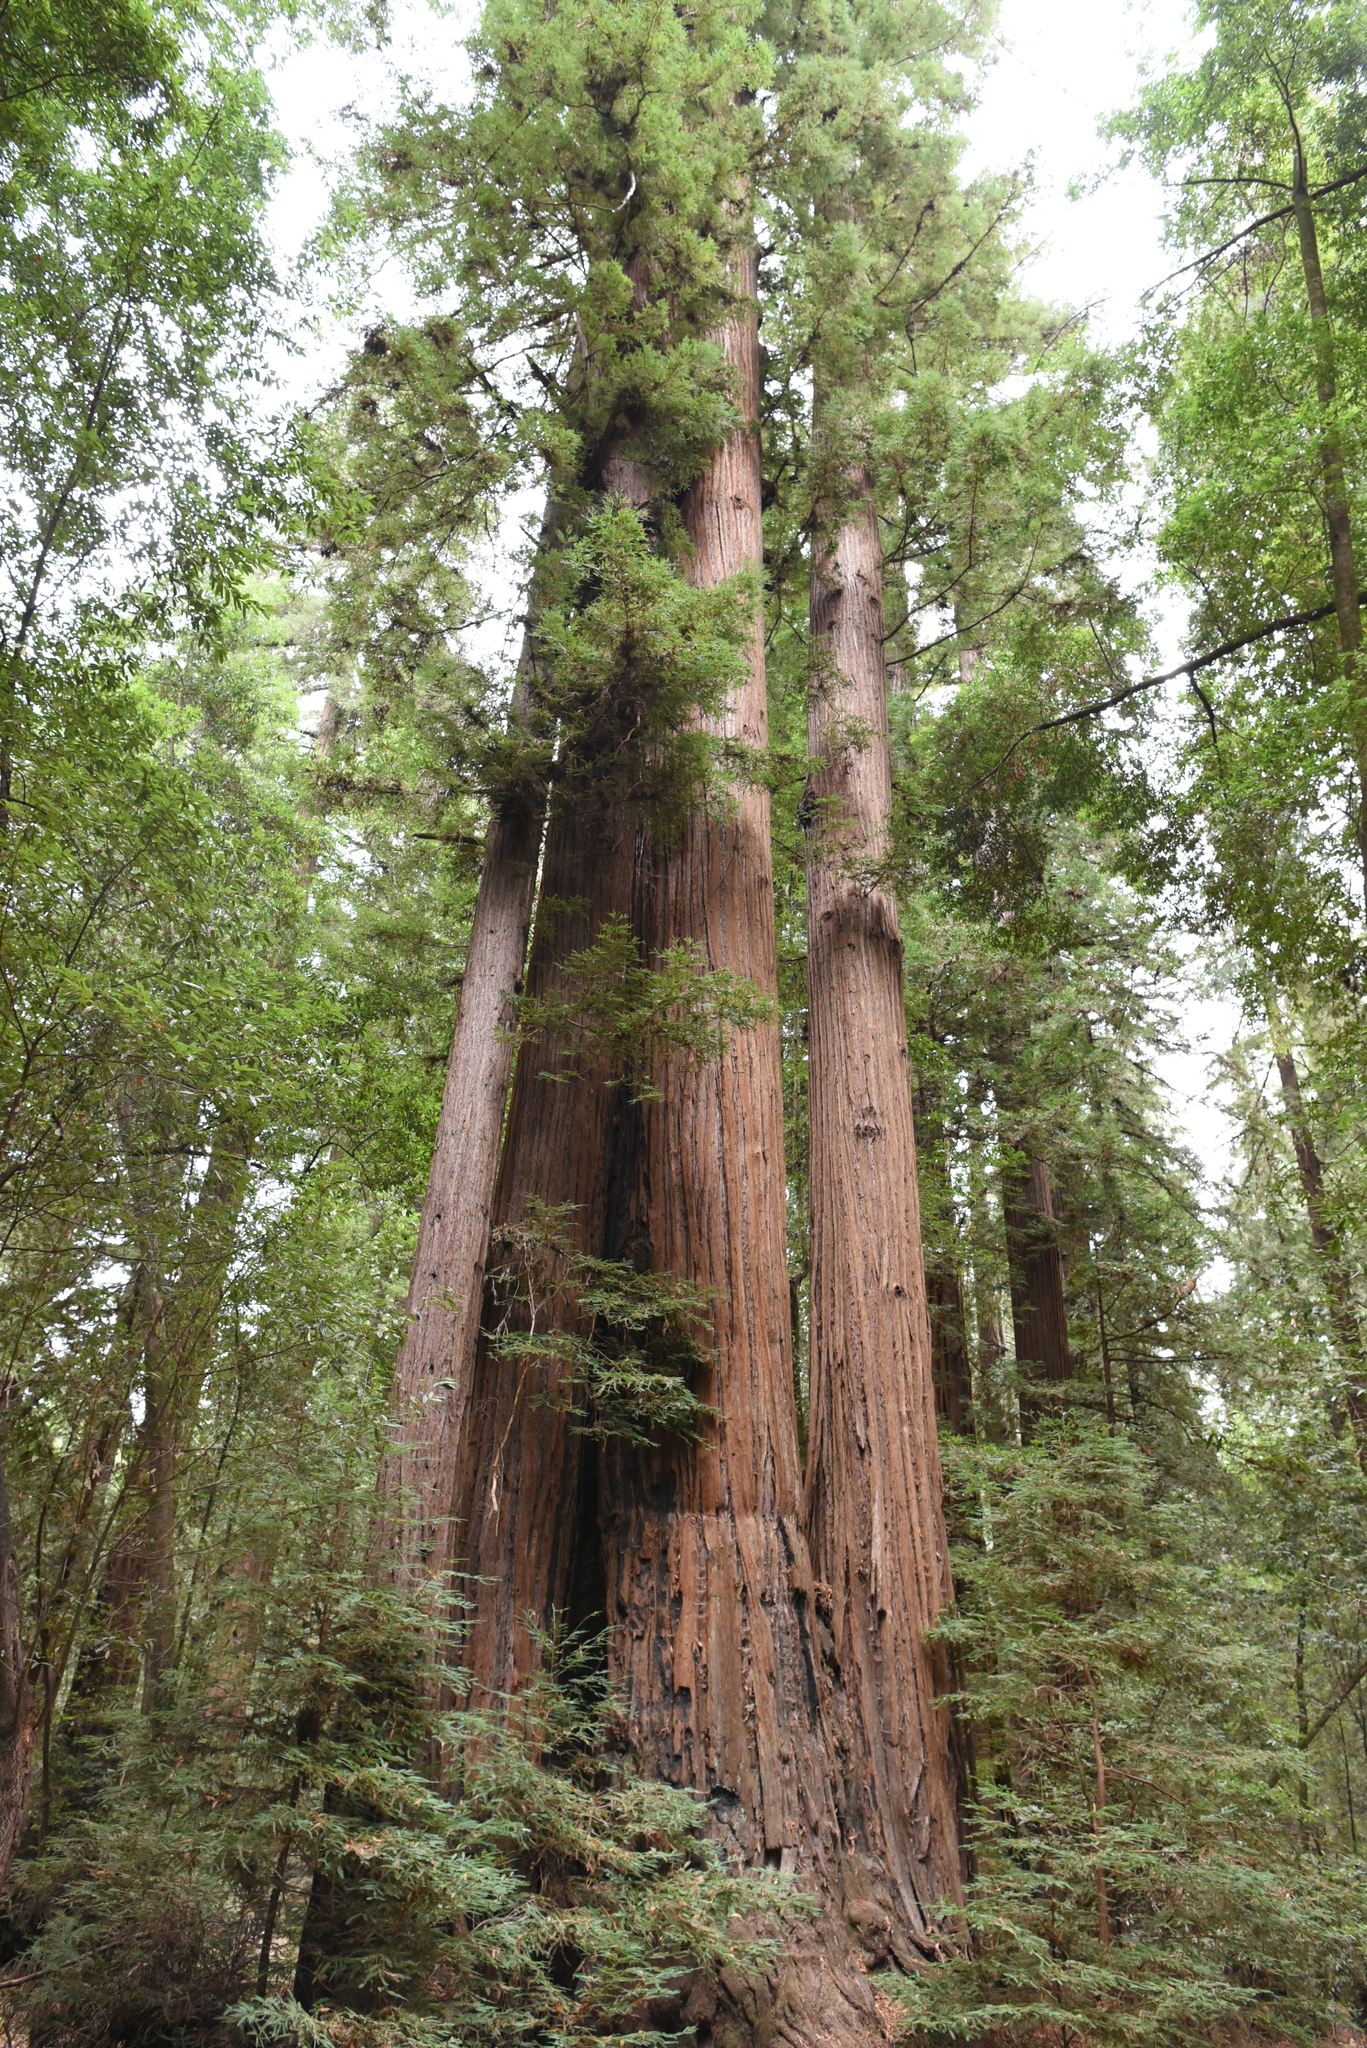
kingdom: Plantae
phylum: Tracheophyta
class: Pinopsida
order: Pinales
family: Cupressaceae
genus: Sequoia
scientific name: Sequoia sempervirens
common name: Coast redwood
